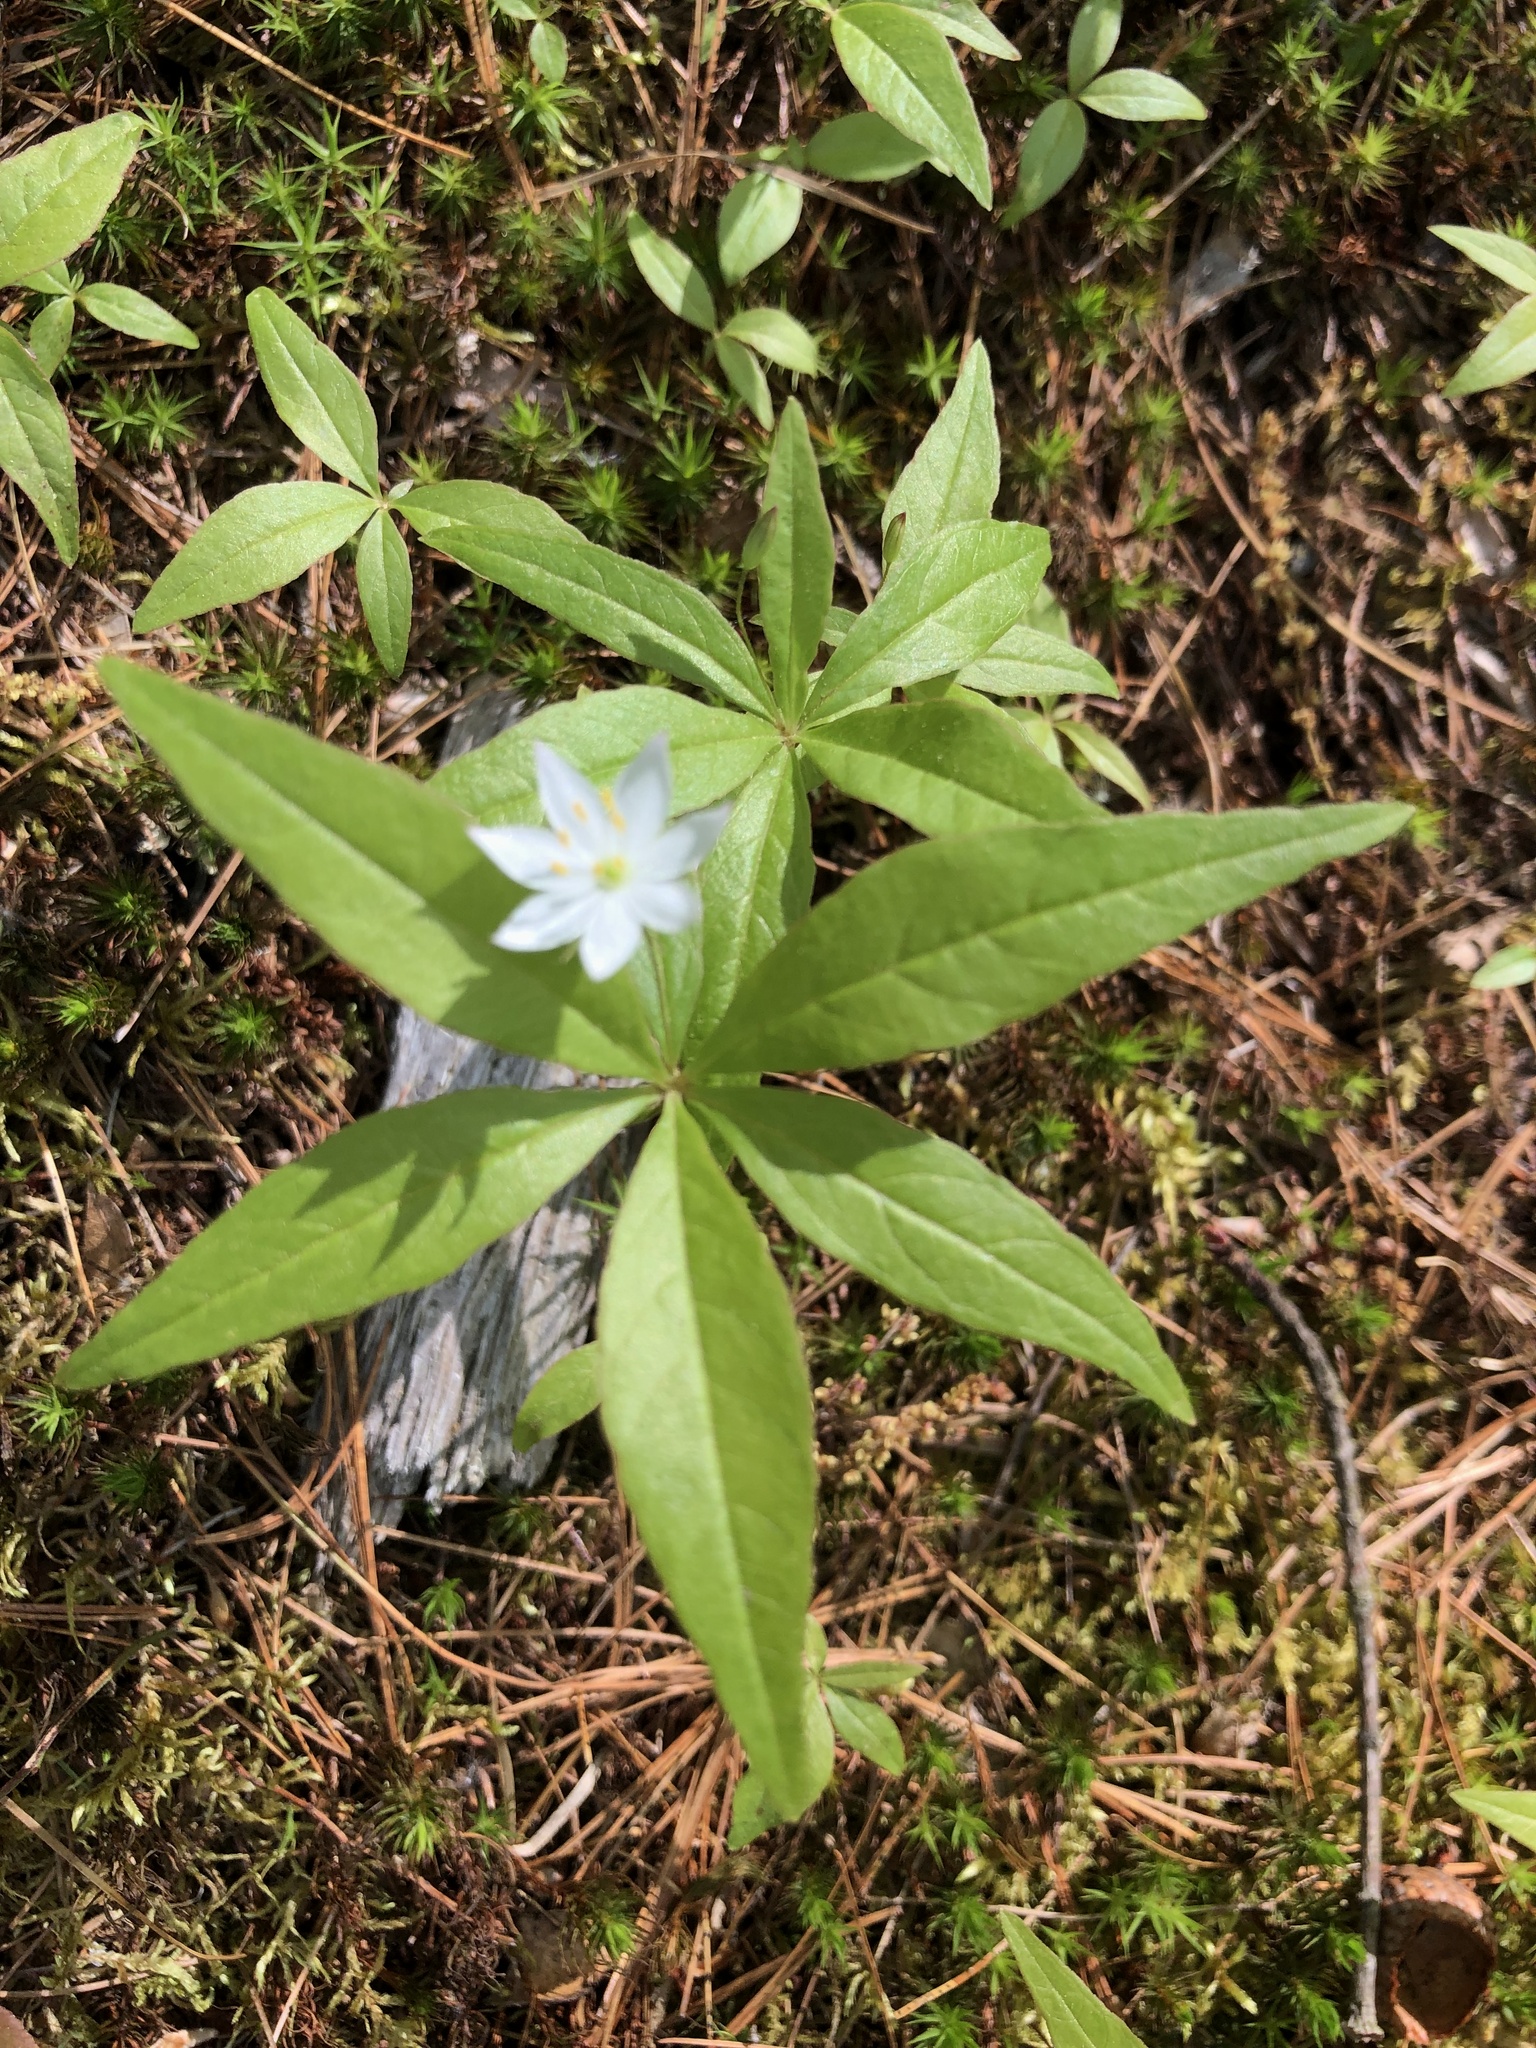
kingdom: Plantae
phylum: Tracheophyta
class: Magnoliopsida
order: Ericales
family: Primulaceae
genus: Lysimachia
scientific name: Lysimachia borealis
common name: American starflower
